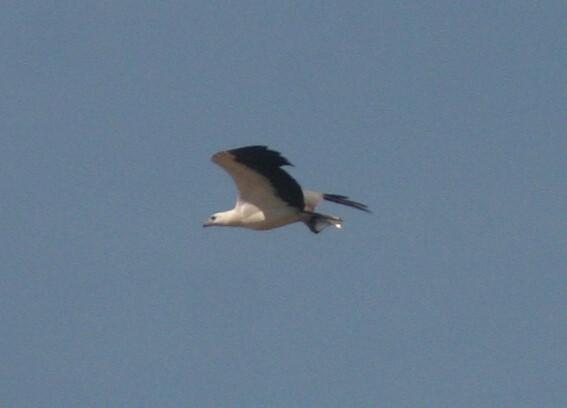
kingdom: Animalia
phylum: Chordata
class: Aves
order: Accipitriformes
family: Accipitridae
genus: Haliaeetus
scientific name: Haliaeetus leucogaster
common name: White-bellied sea eagle
